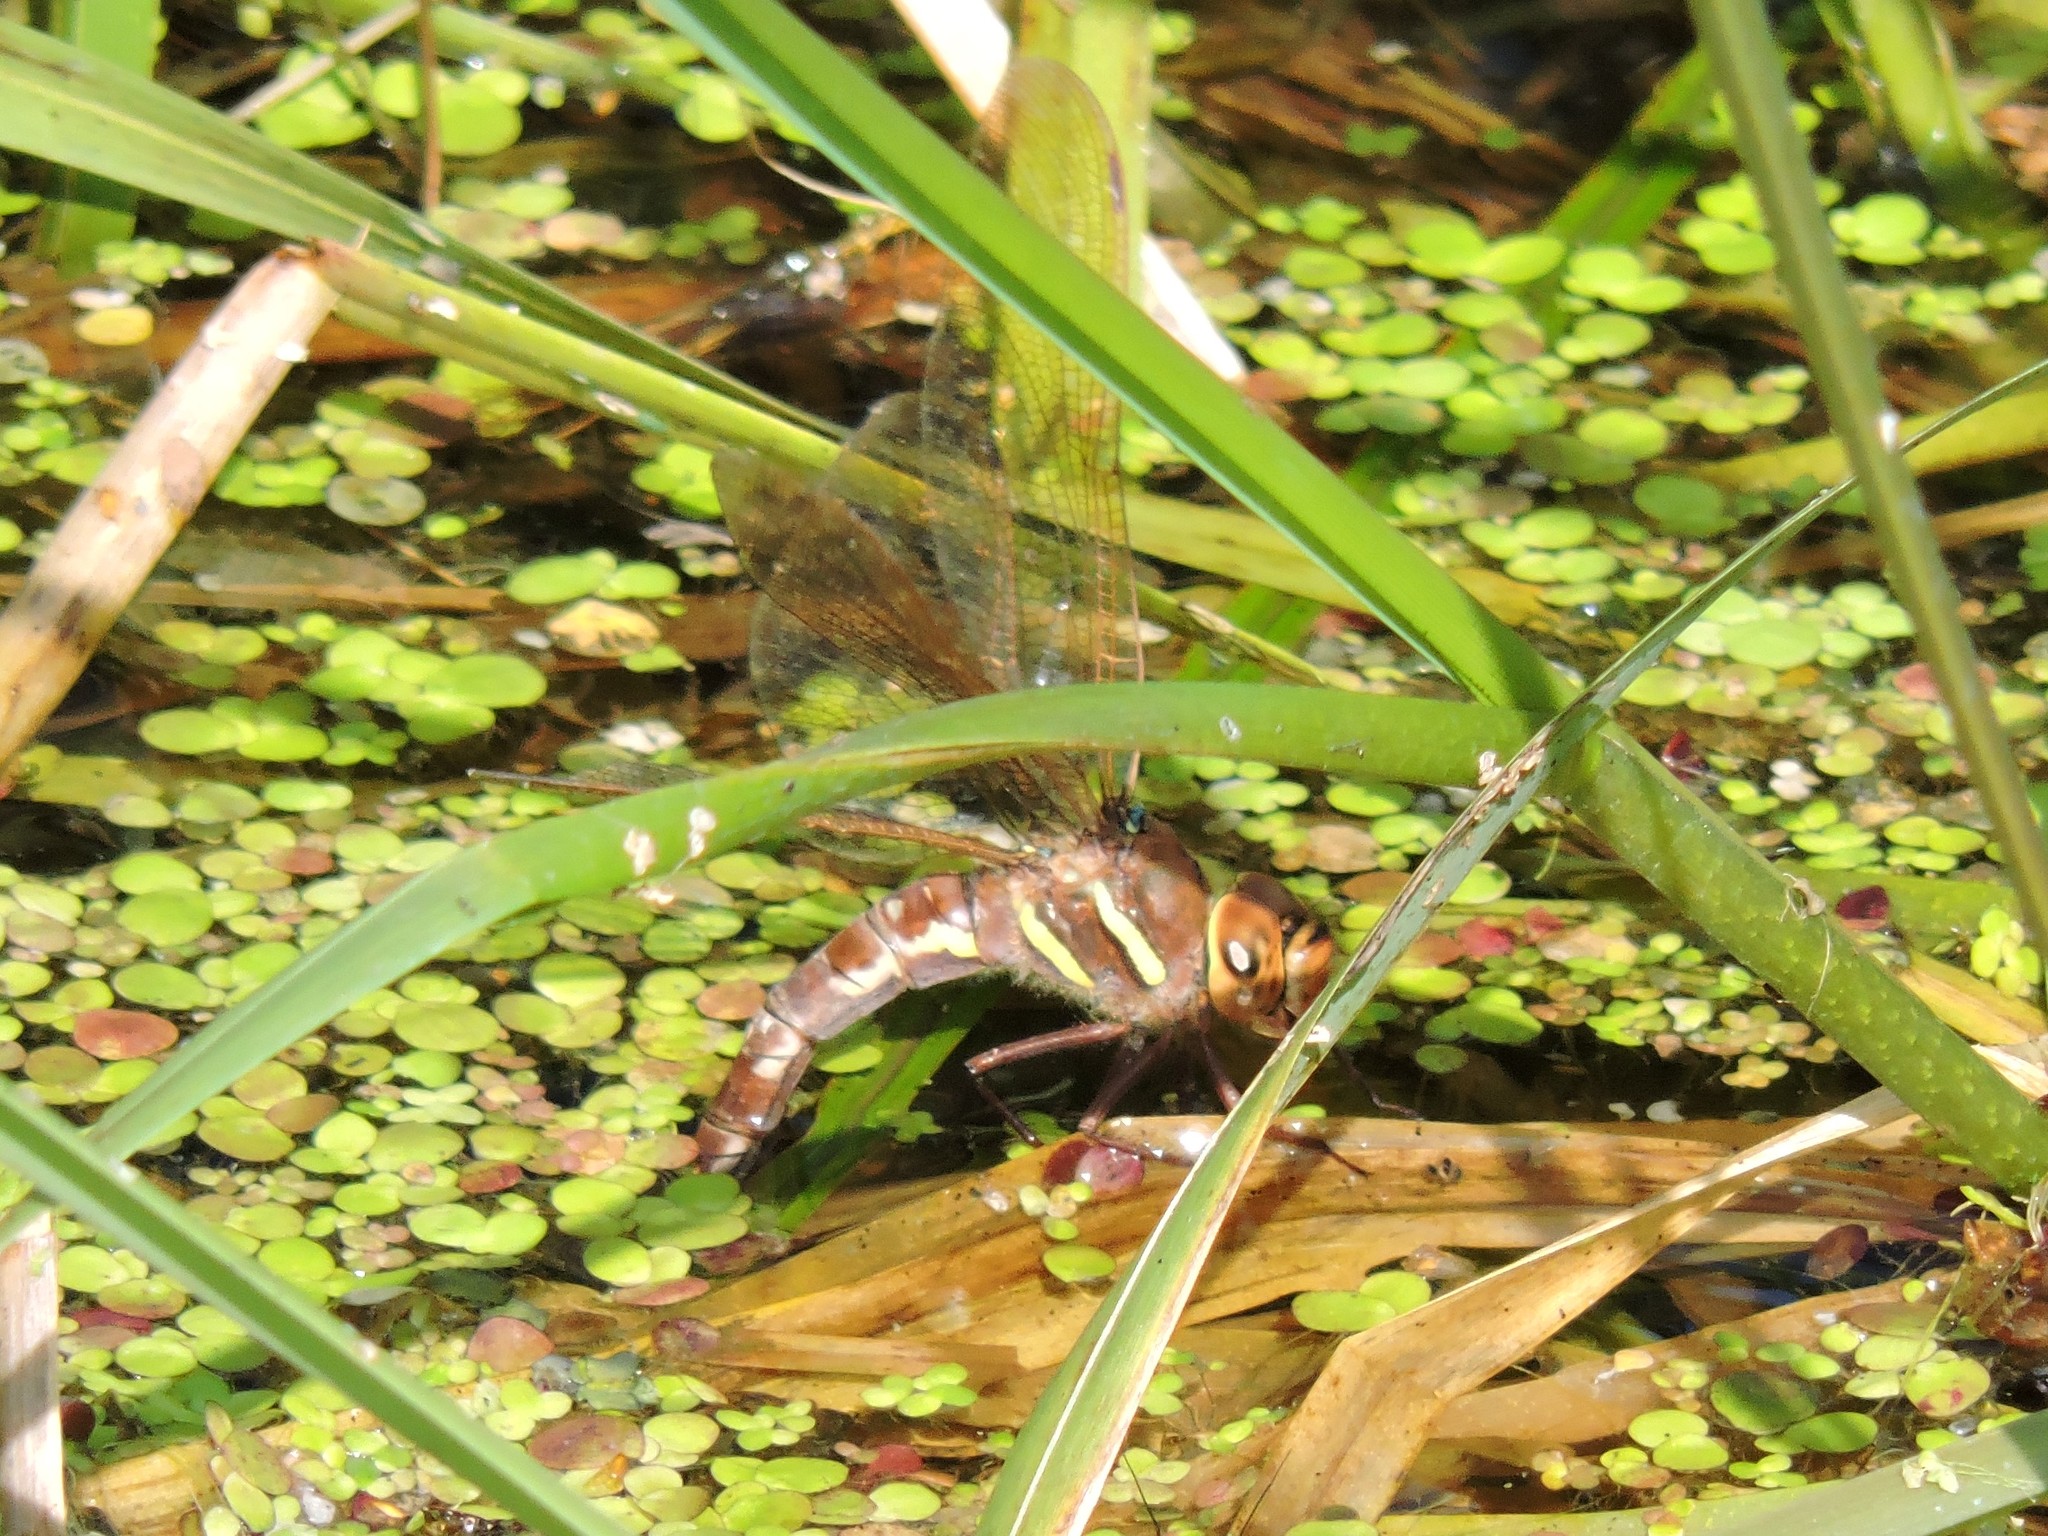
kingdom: Animalia
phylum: Arthropoda
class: Insecta
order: Odonata
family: Aeshnidae
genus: Aeshna
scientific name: Aeshna grandis
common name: Brown hawker
